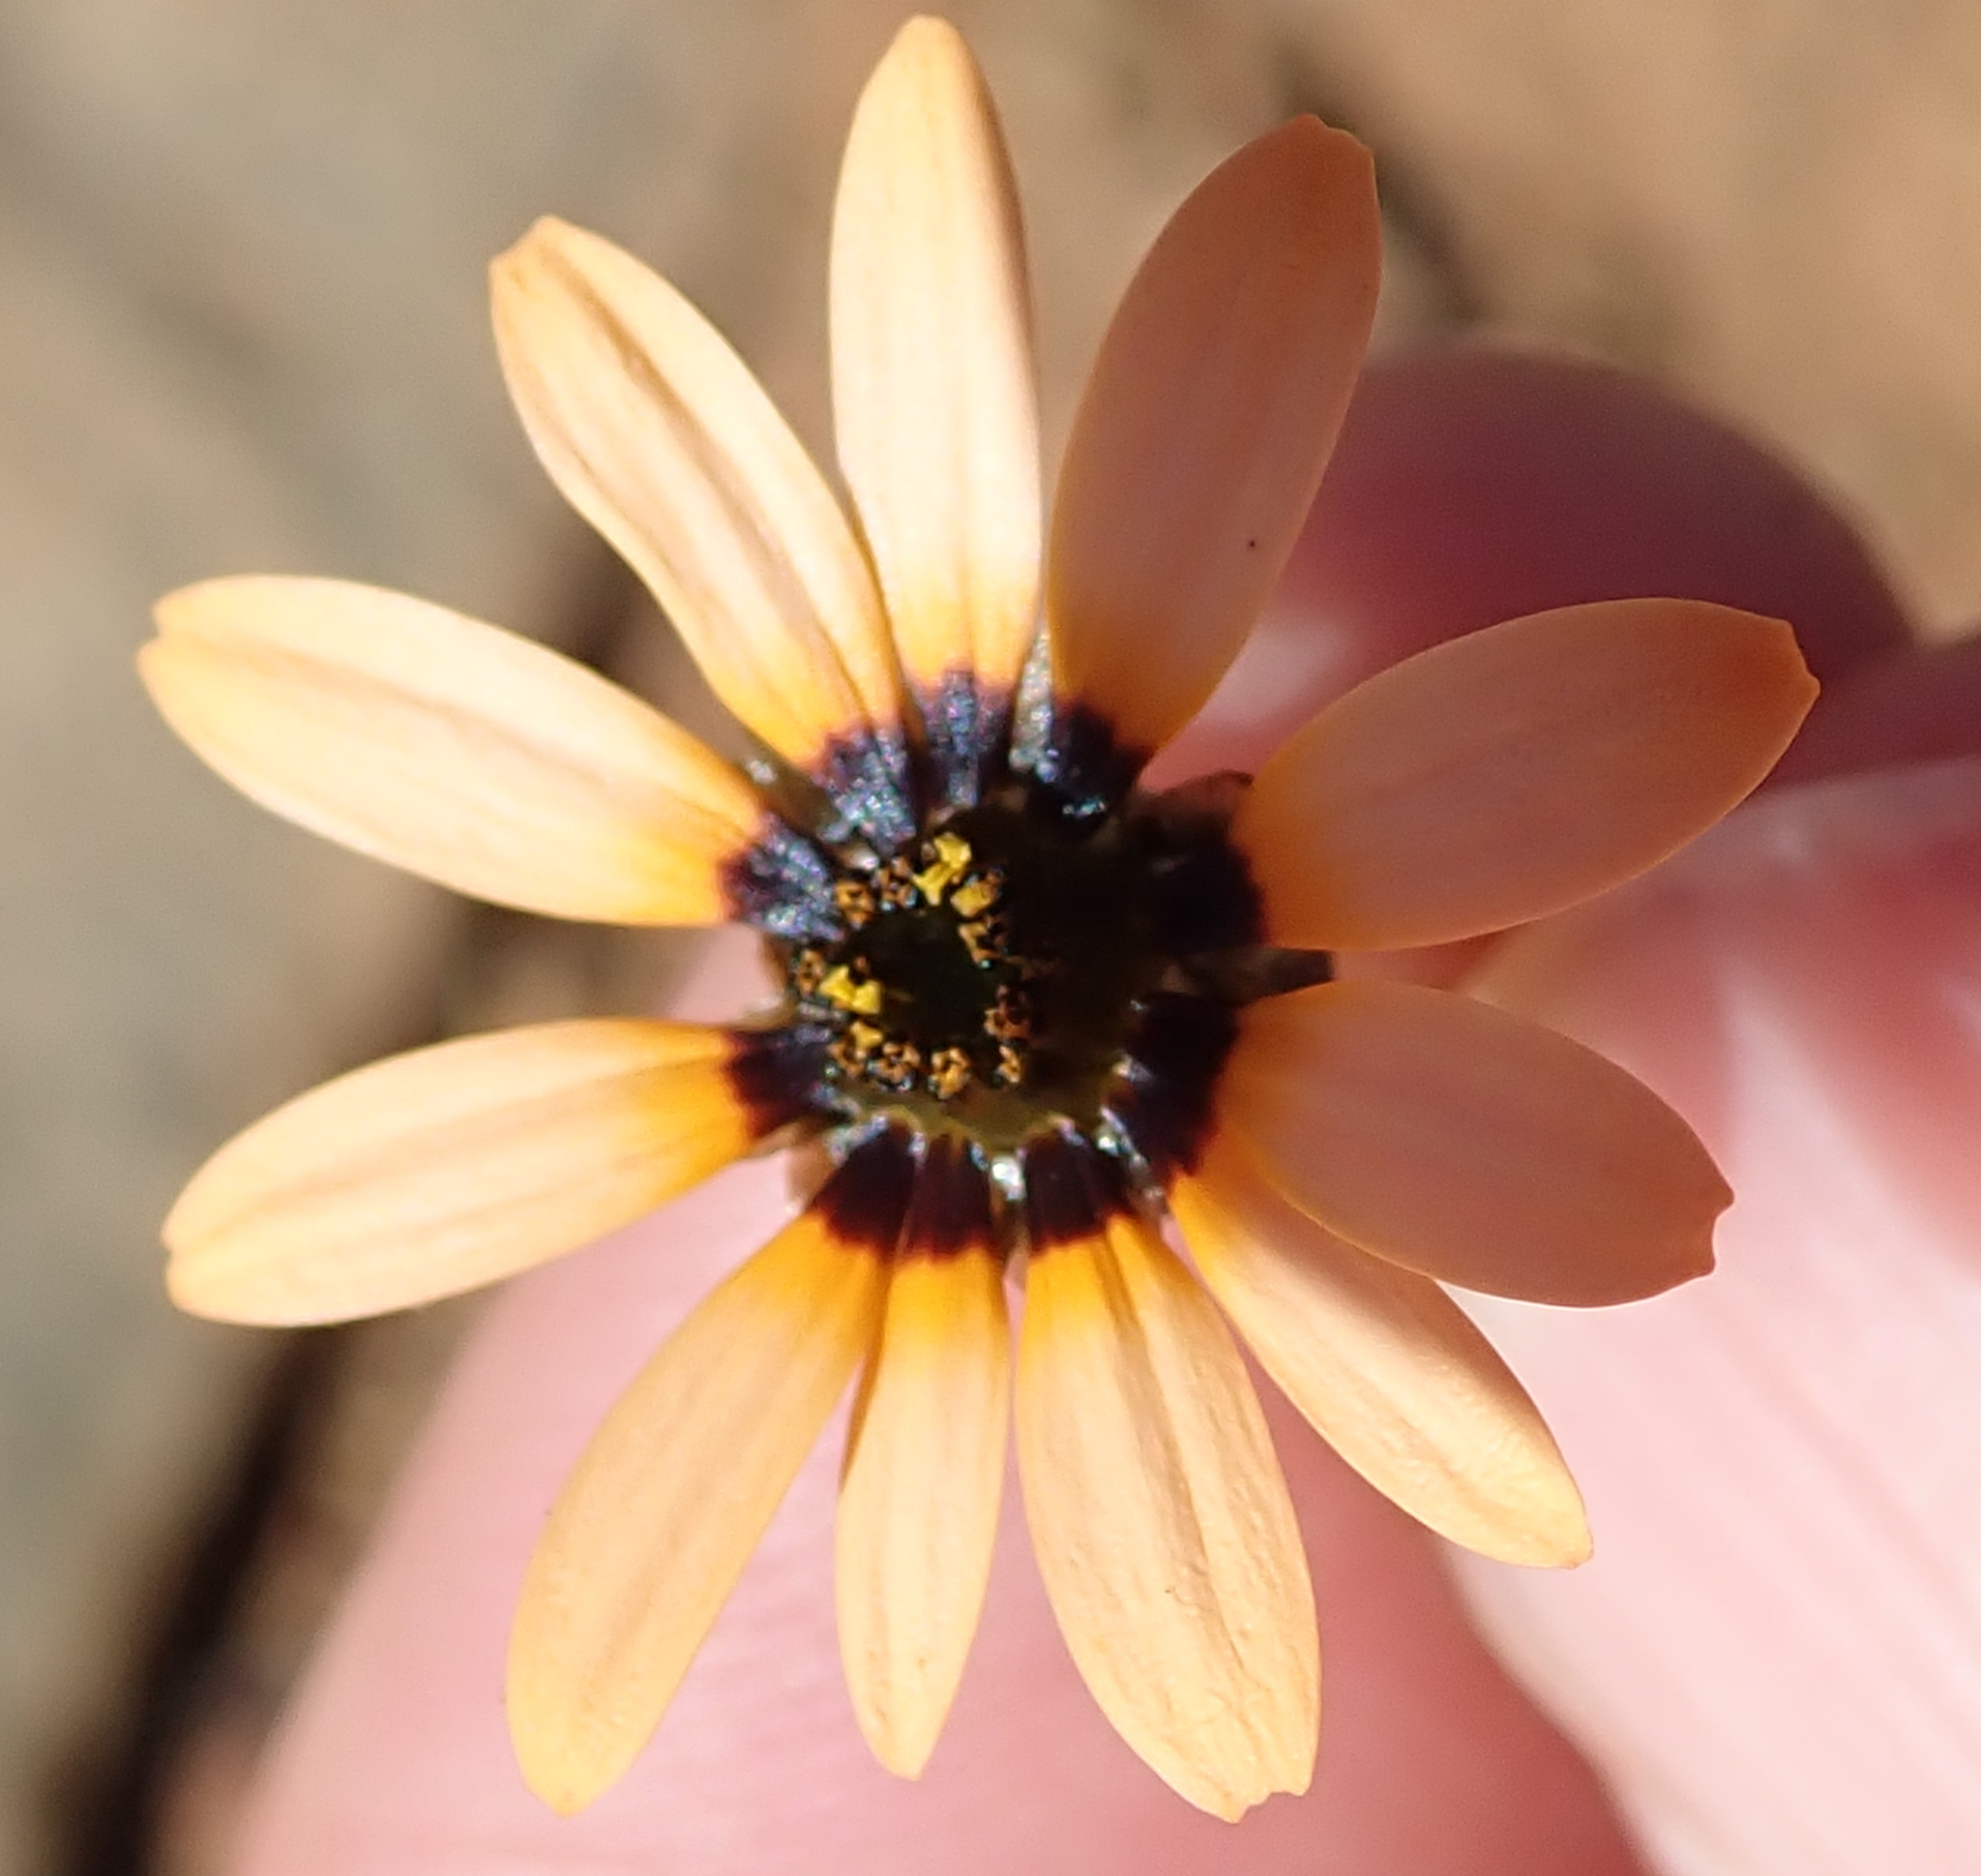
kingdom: Plantae
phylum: Tracheophyta
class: Magnoliopsida
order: Asterales
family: Asteraceae
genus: Ursinia
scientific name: Ursinia anthemoides
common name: Ursinia
